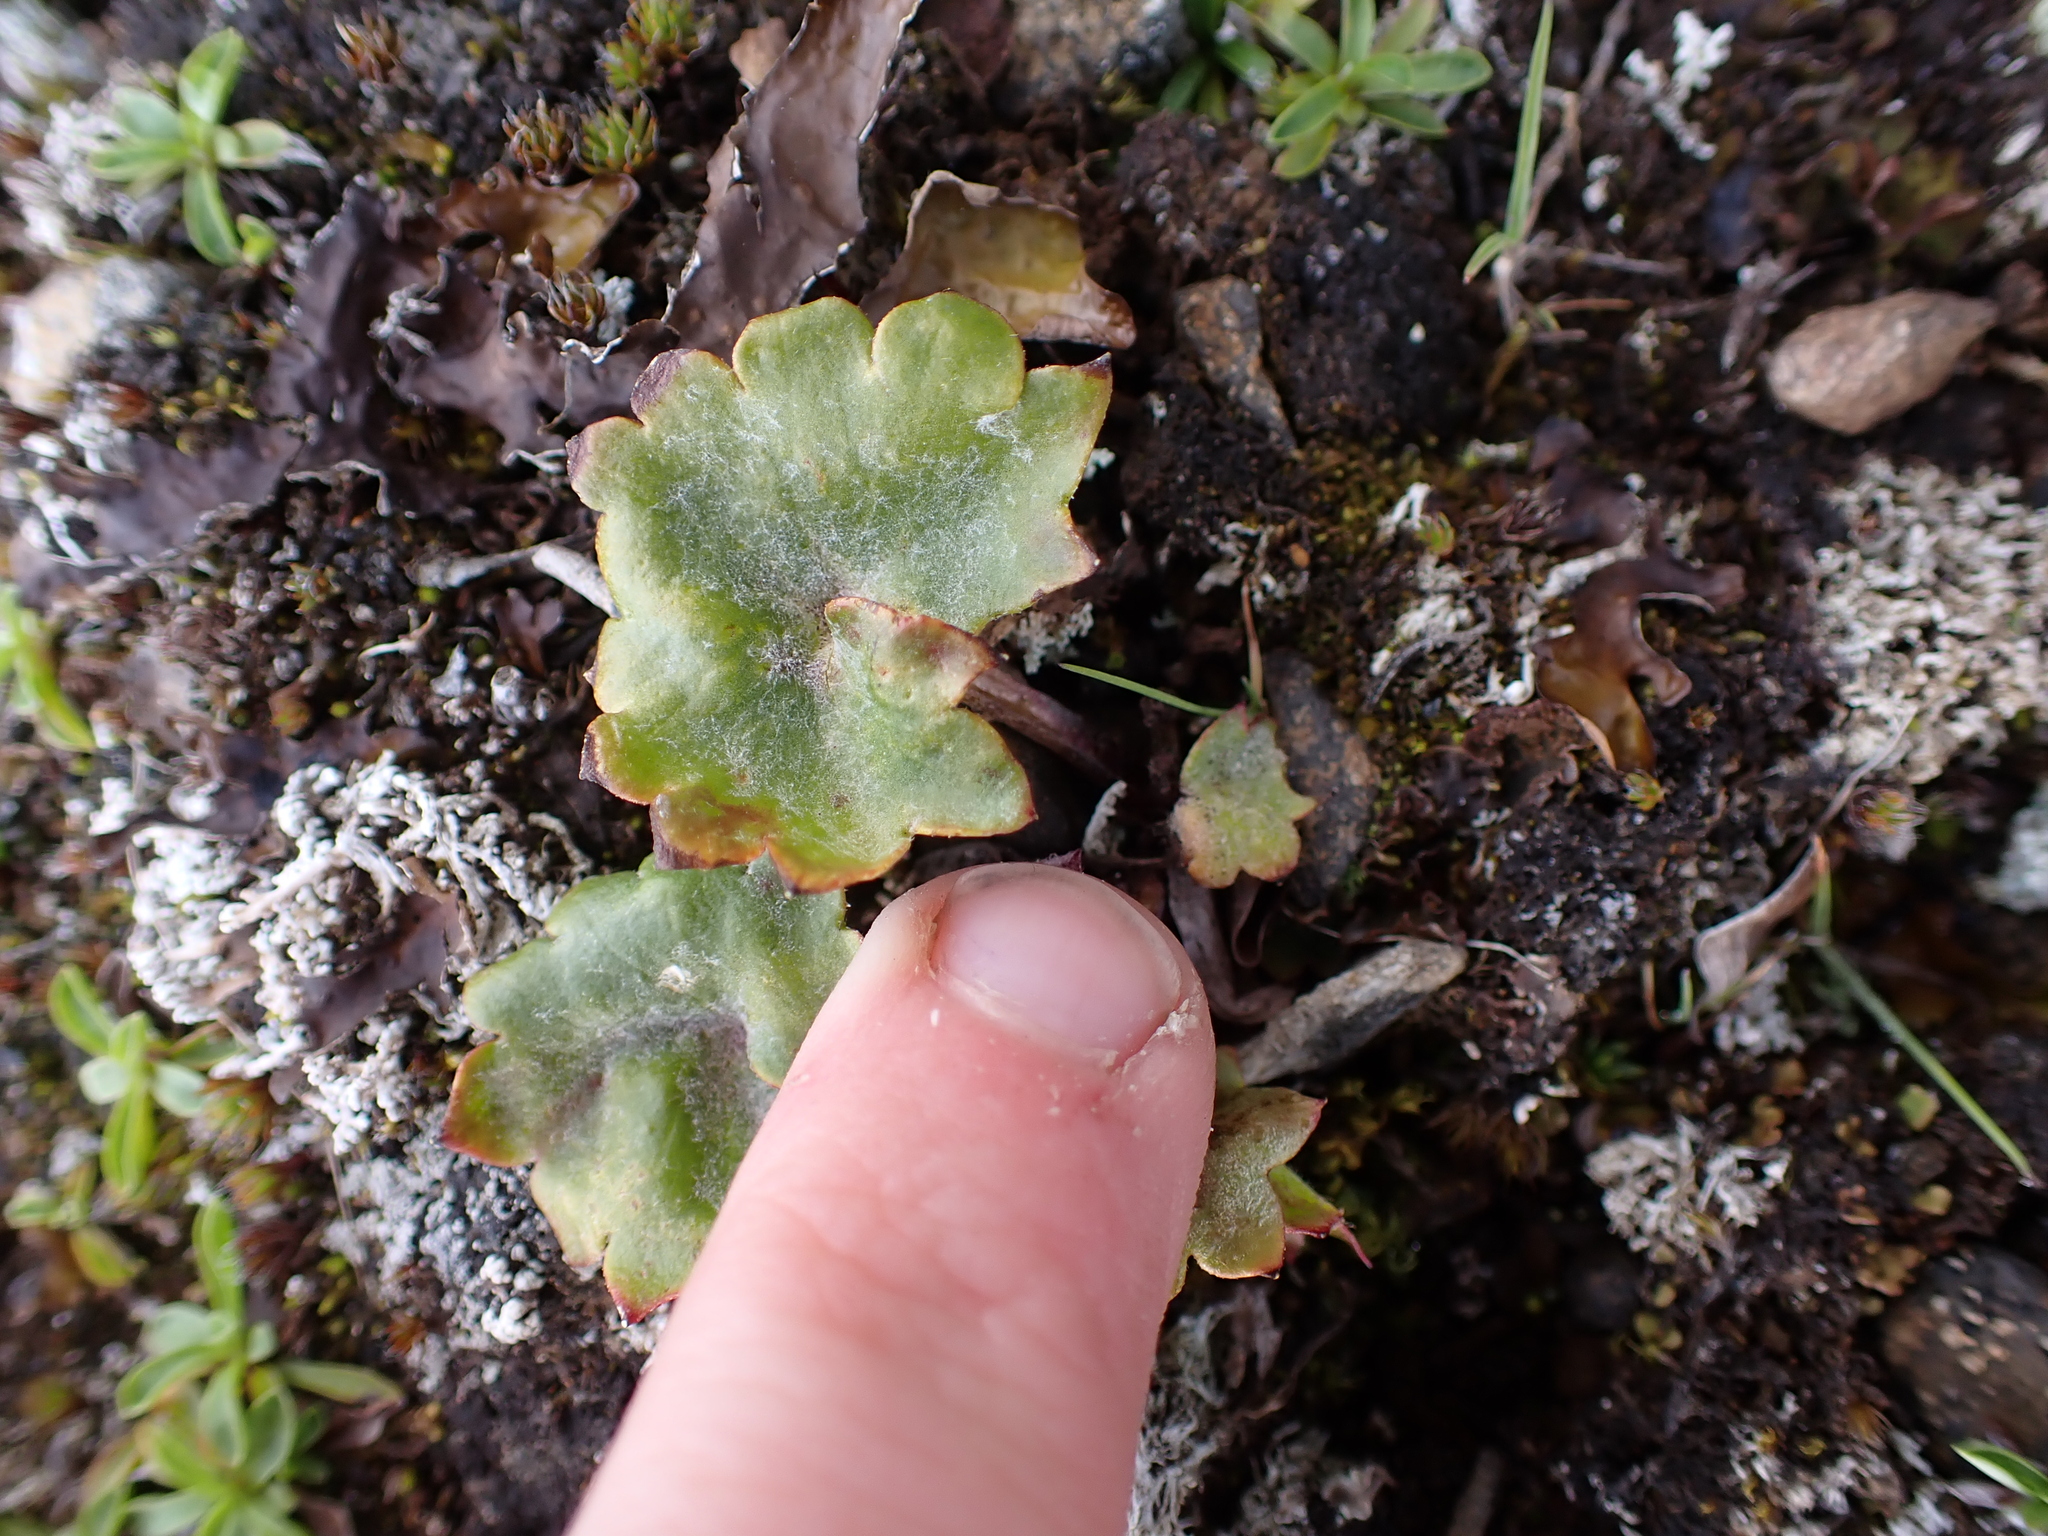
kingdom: Plantae
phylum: Tracheophyta
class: Magnoliopsida
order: Saxifragales
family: Saxifragaceae
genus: Micranthes
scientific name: Micranthes nelsoniana
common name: Nelson's saxifrage
